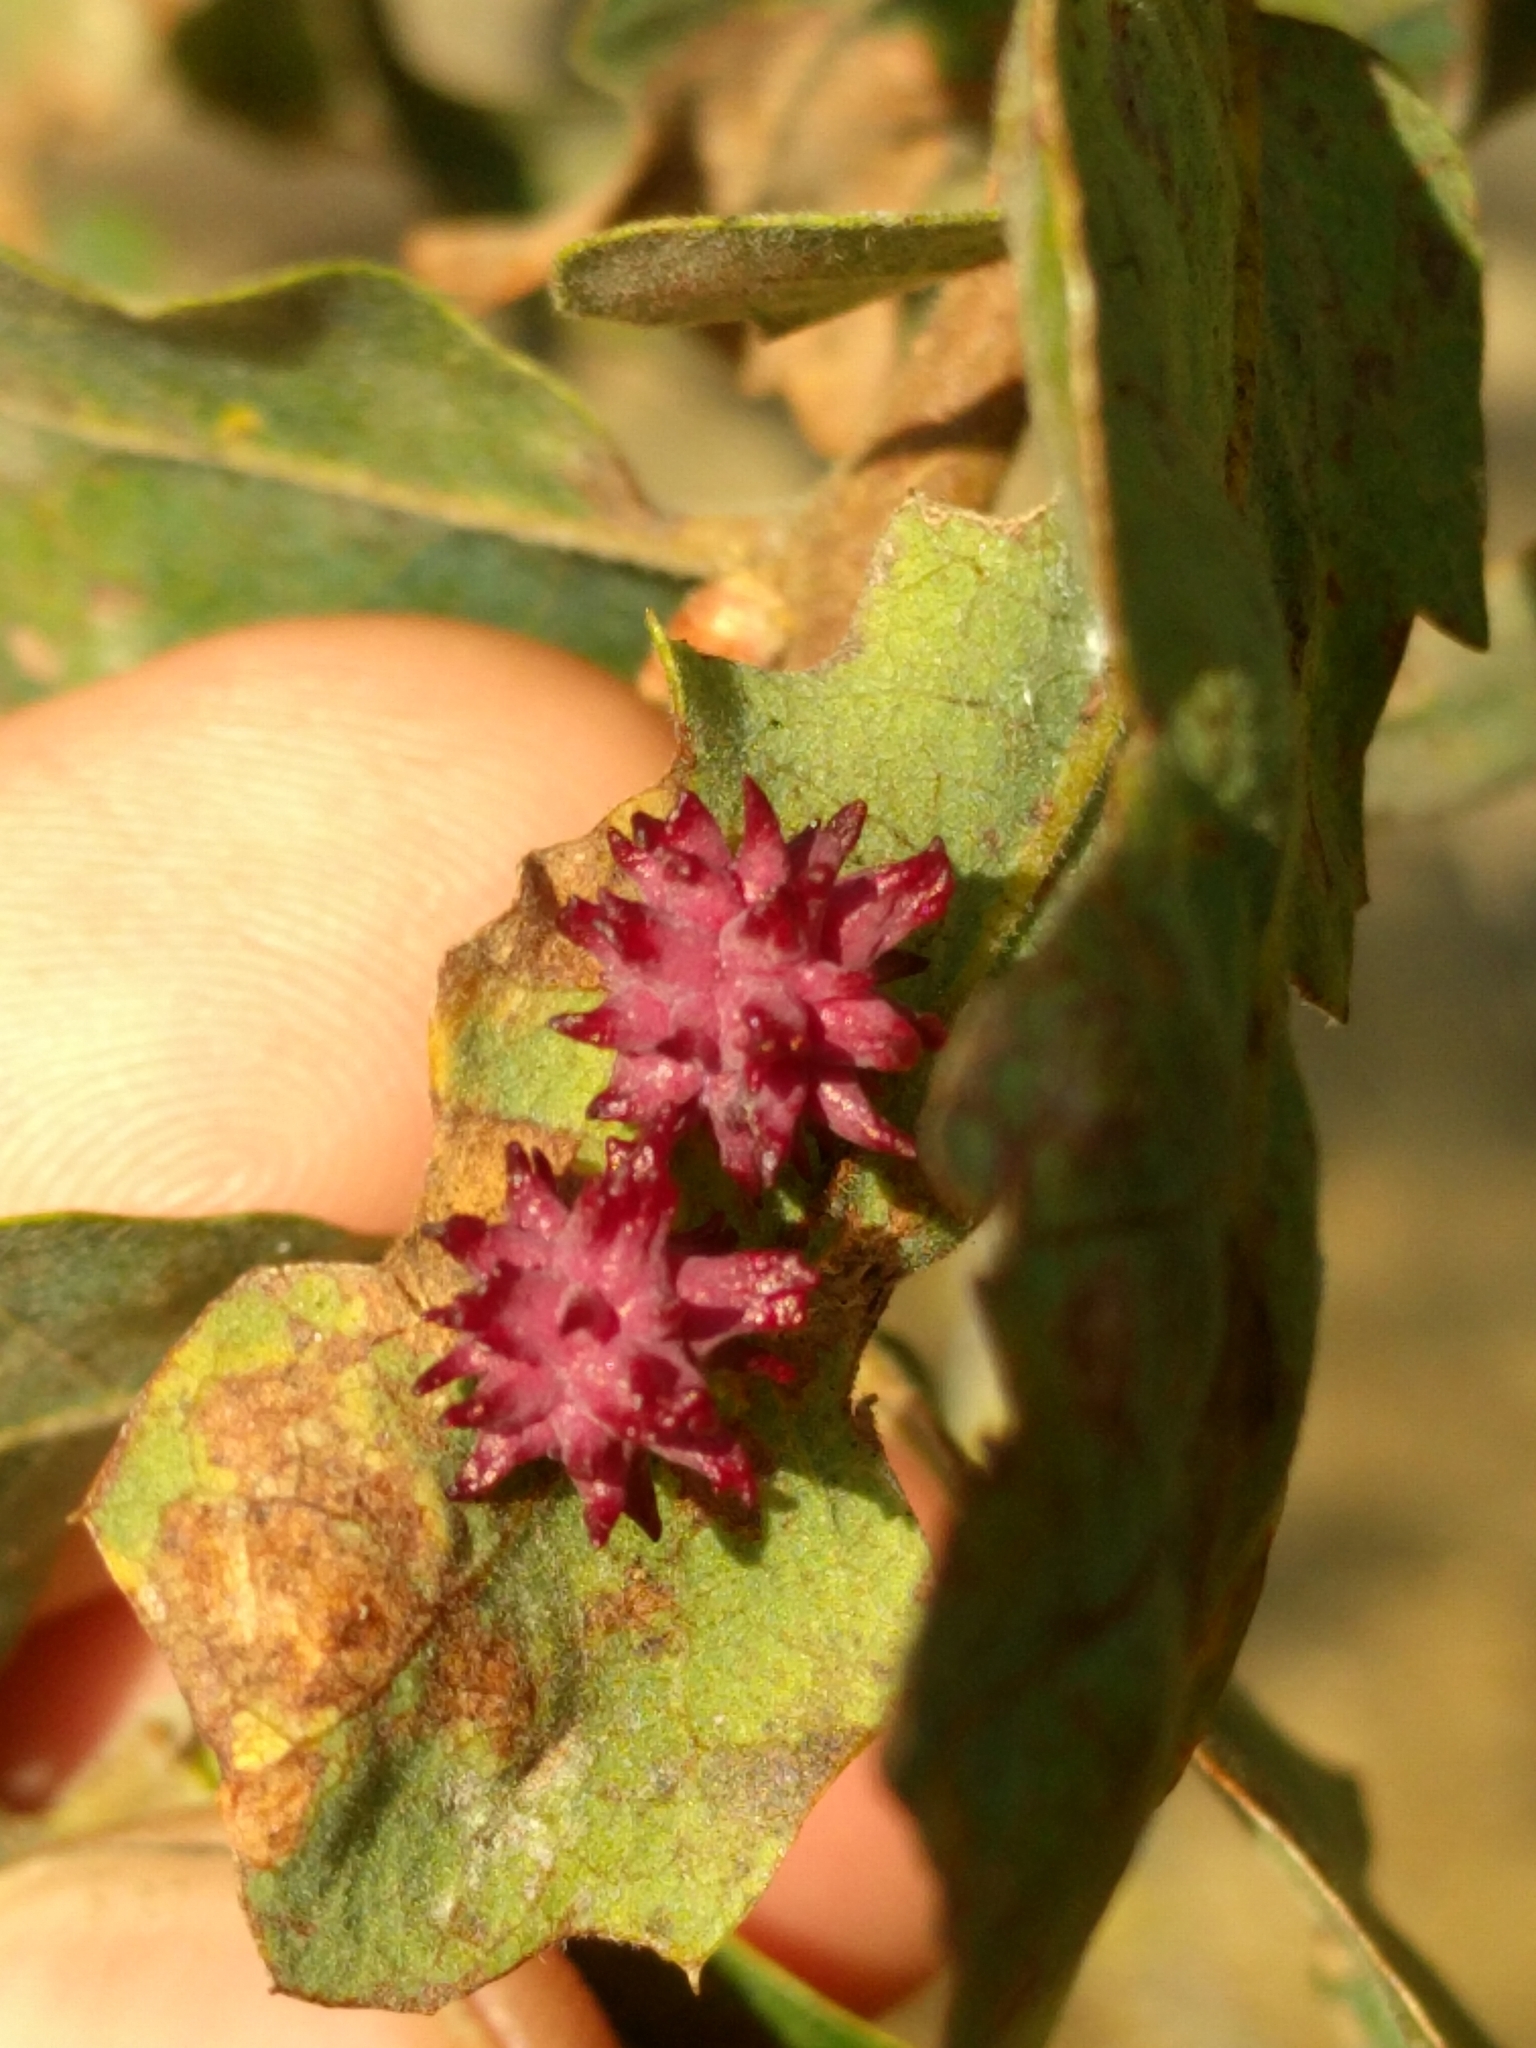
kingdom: Animalia
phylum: Arthropoda
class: Insecta
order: Hymenoptera
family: Cynipidae
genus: Cynips
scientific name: Cynips
